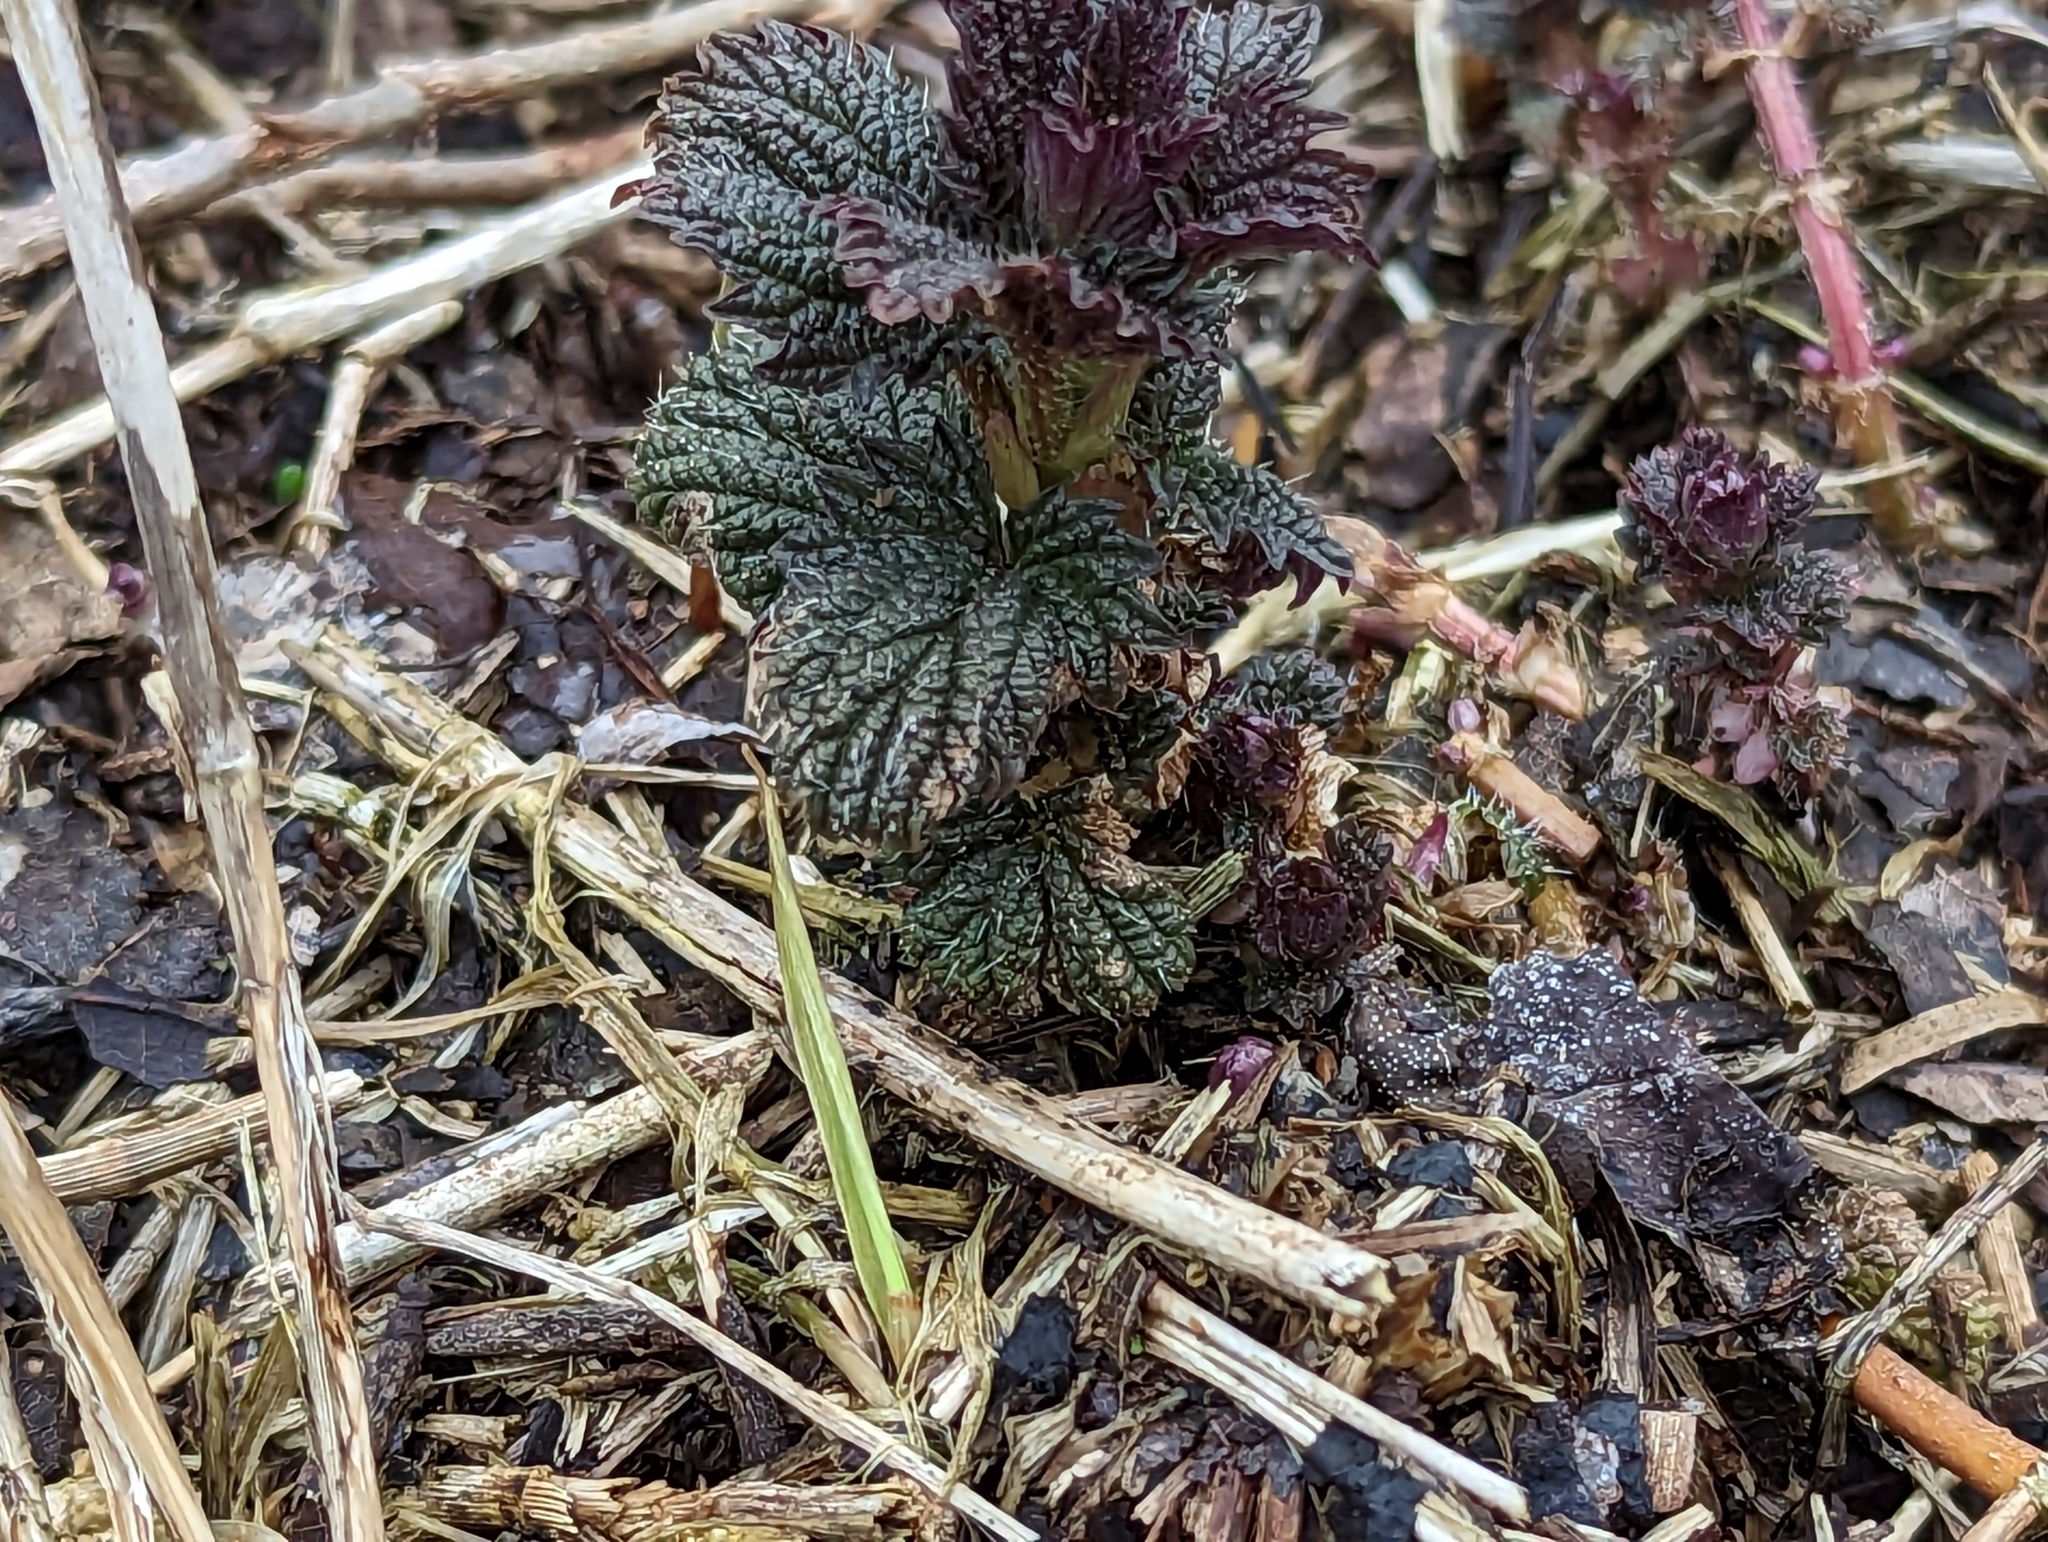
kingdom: Plantae
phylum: Tracheophyta
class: Magnoliopsida
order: Rosales
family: Urticaceae
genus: Urtica
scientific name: Urtica dioica
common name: Common nettle
